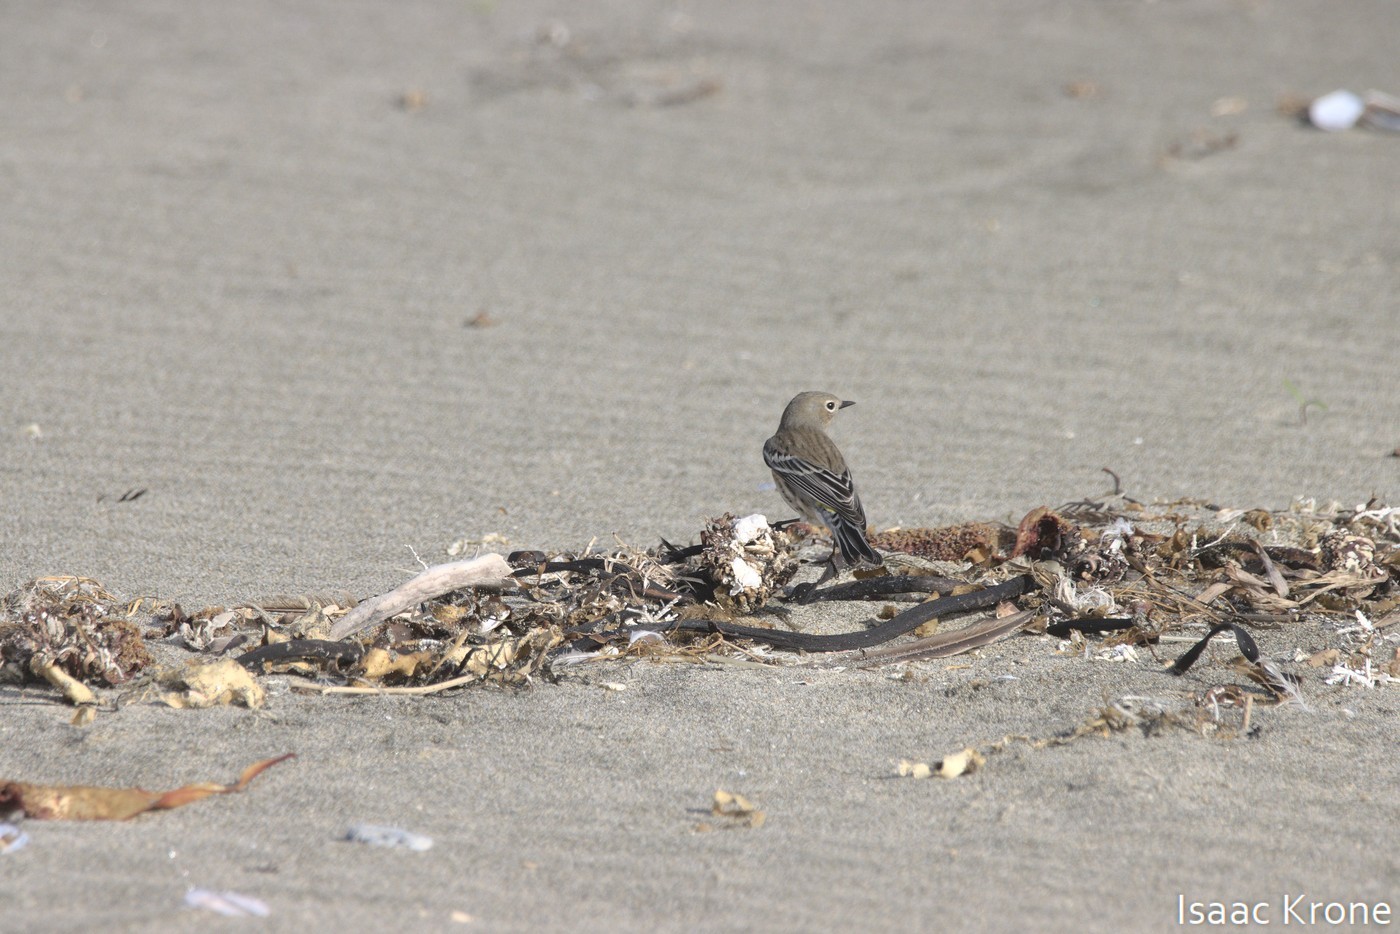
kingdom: Animalia
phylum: Chordata
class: Aves
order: Passeriformes
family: Parulidae
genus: Setophaga
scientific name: Setophaga coronata
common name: Myrtle warbler
